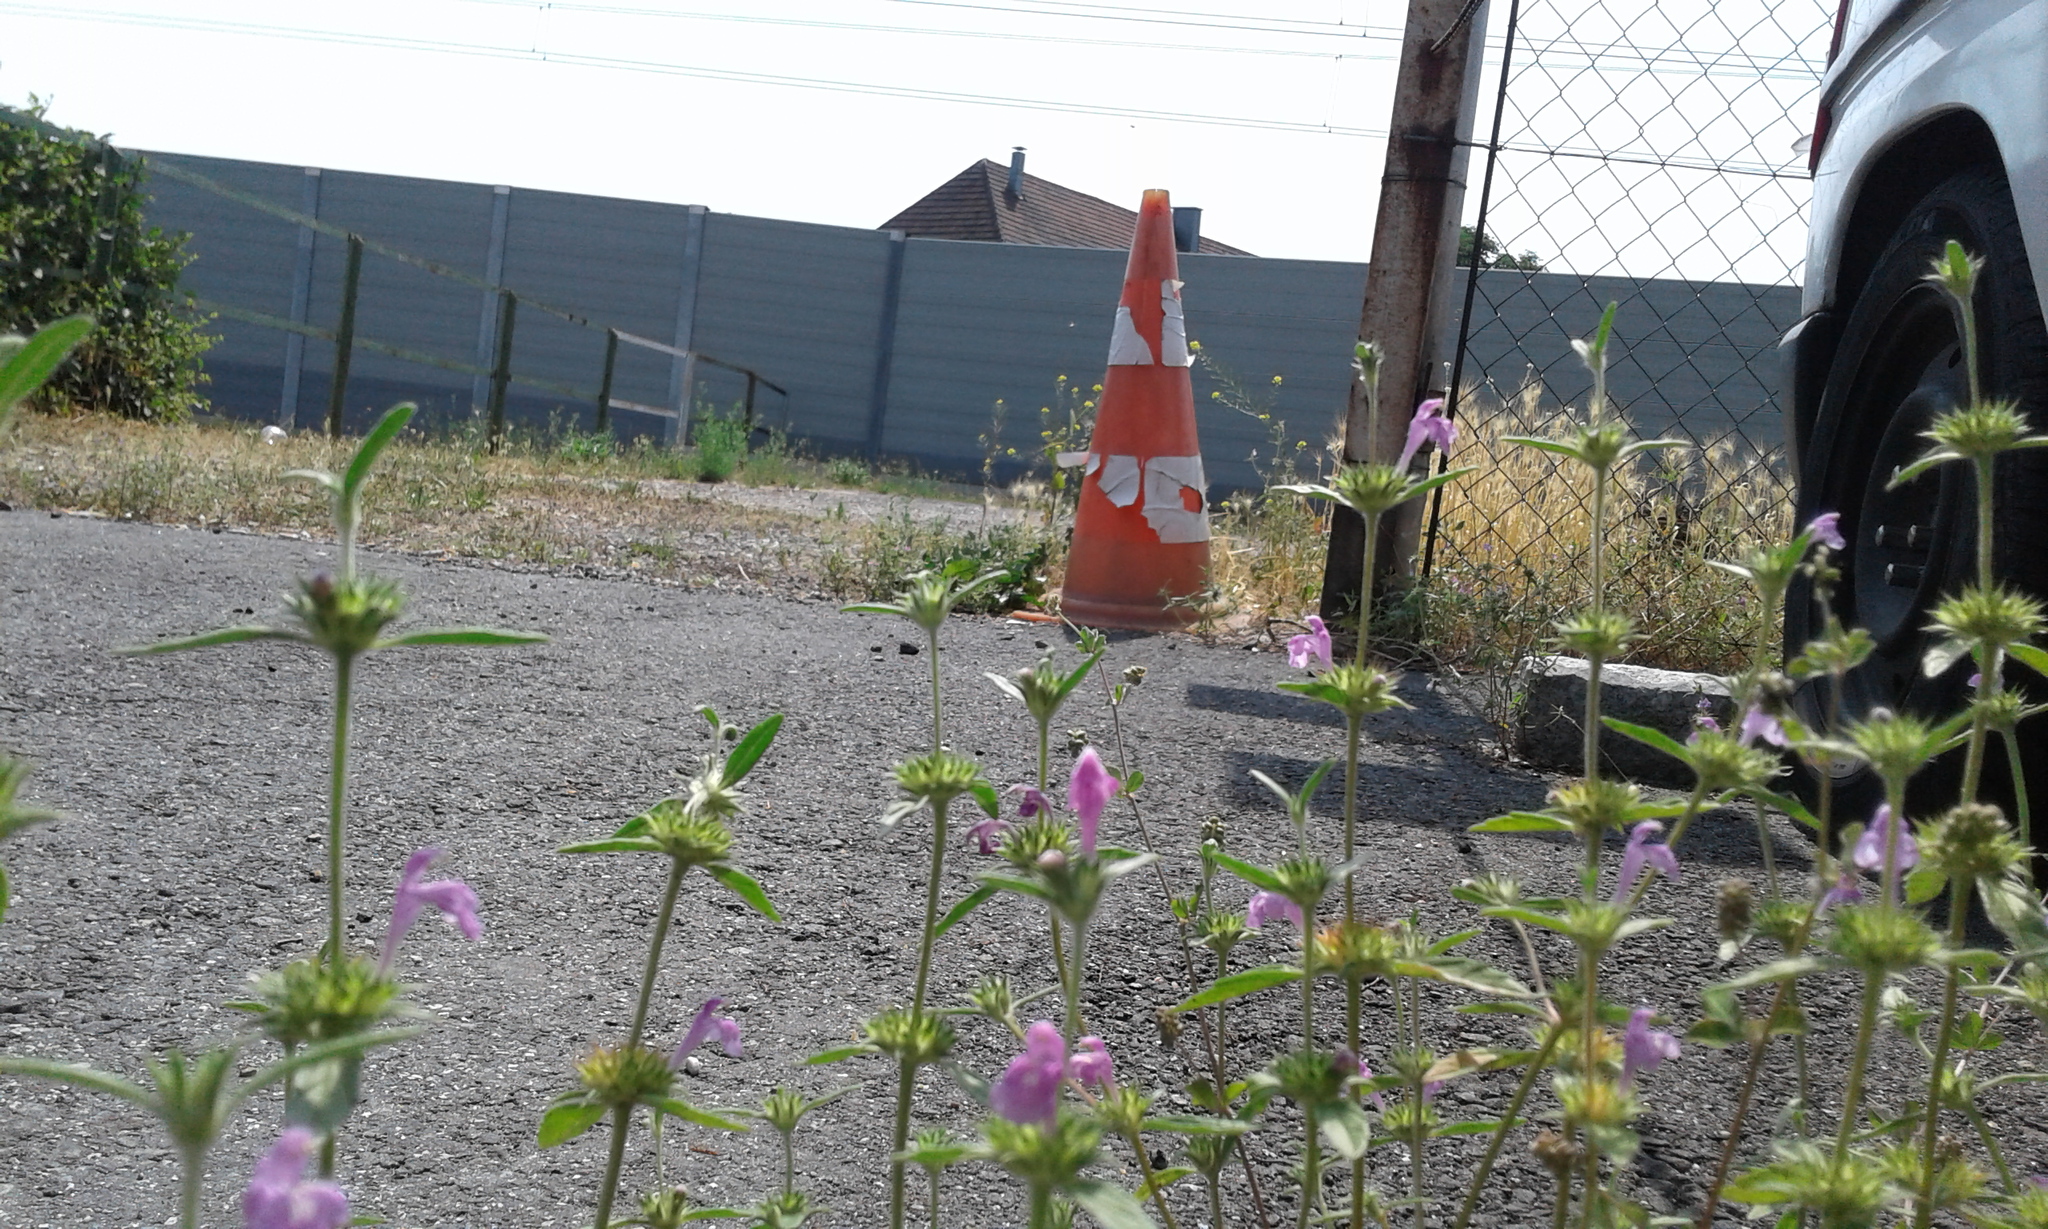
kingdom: Plantae
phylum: Tracheophyta
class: Magnoliopsida
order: Lamiales
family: Lamiaceae
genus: Galeopsis
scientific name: Galeopsis angustifolia
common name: Red hemp-nettle
